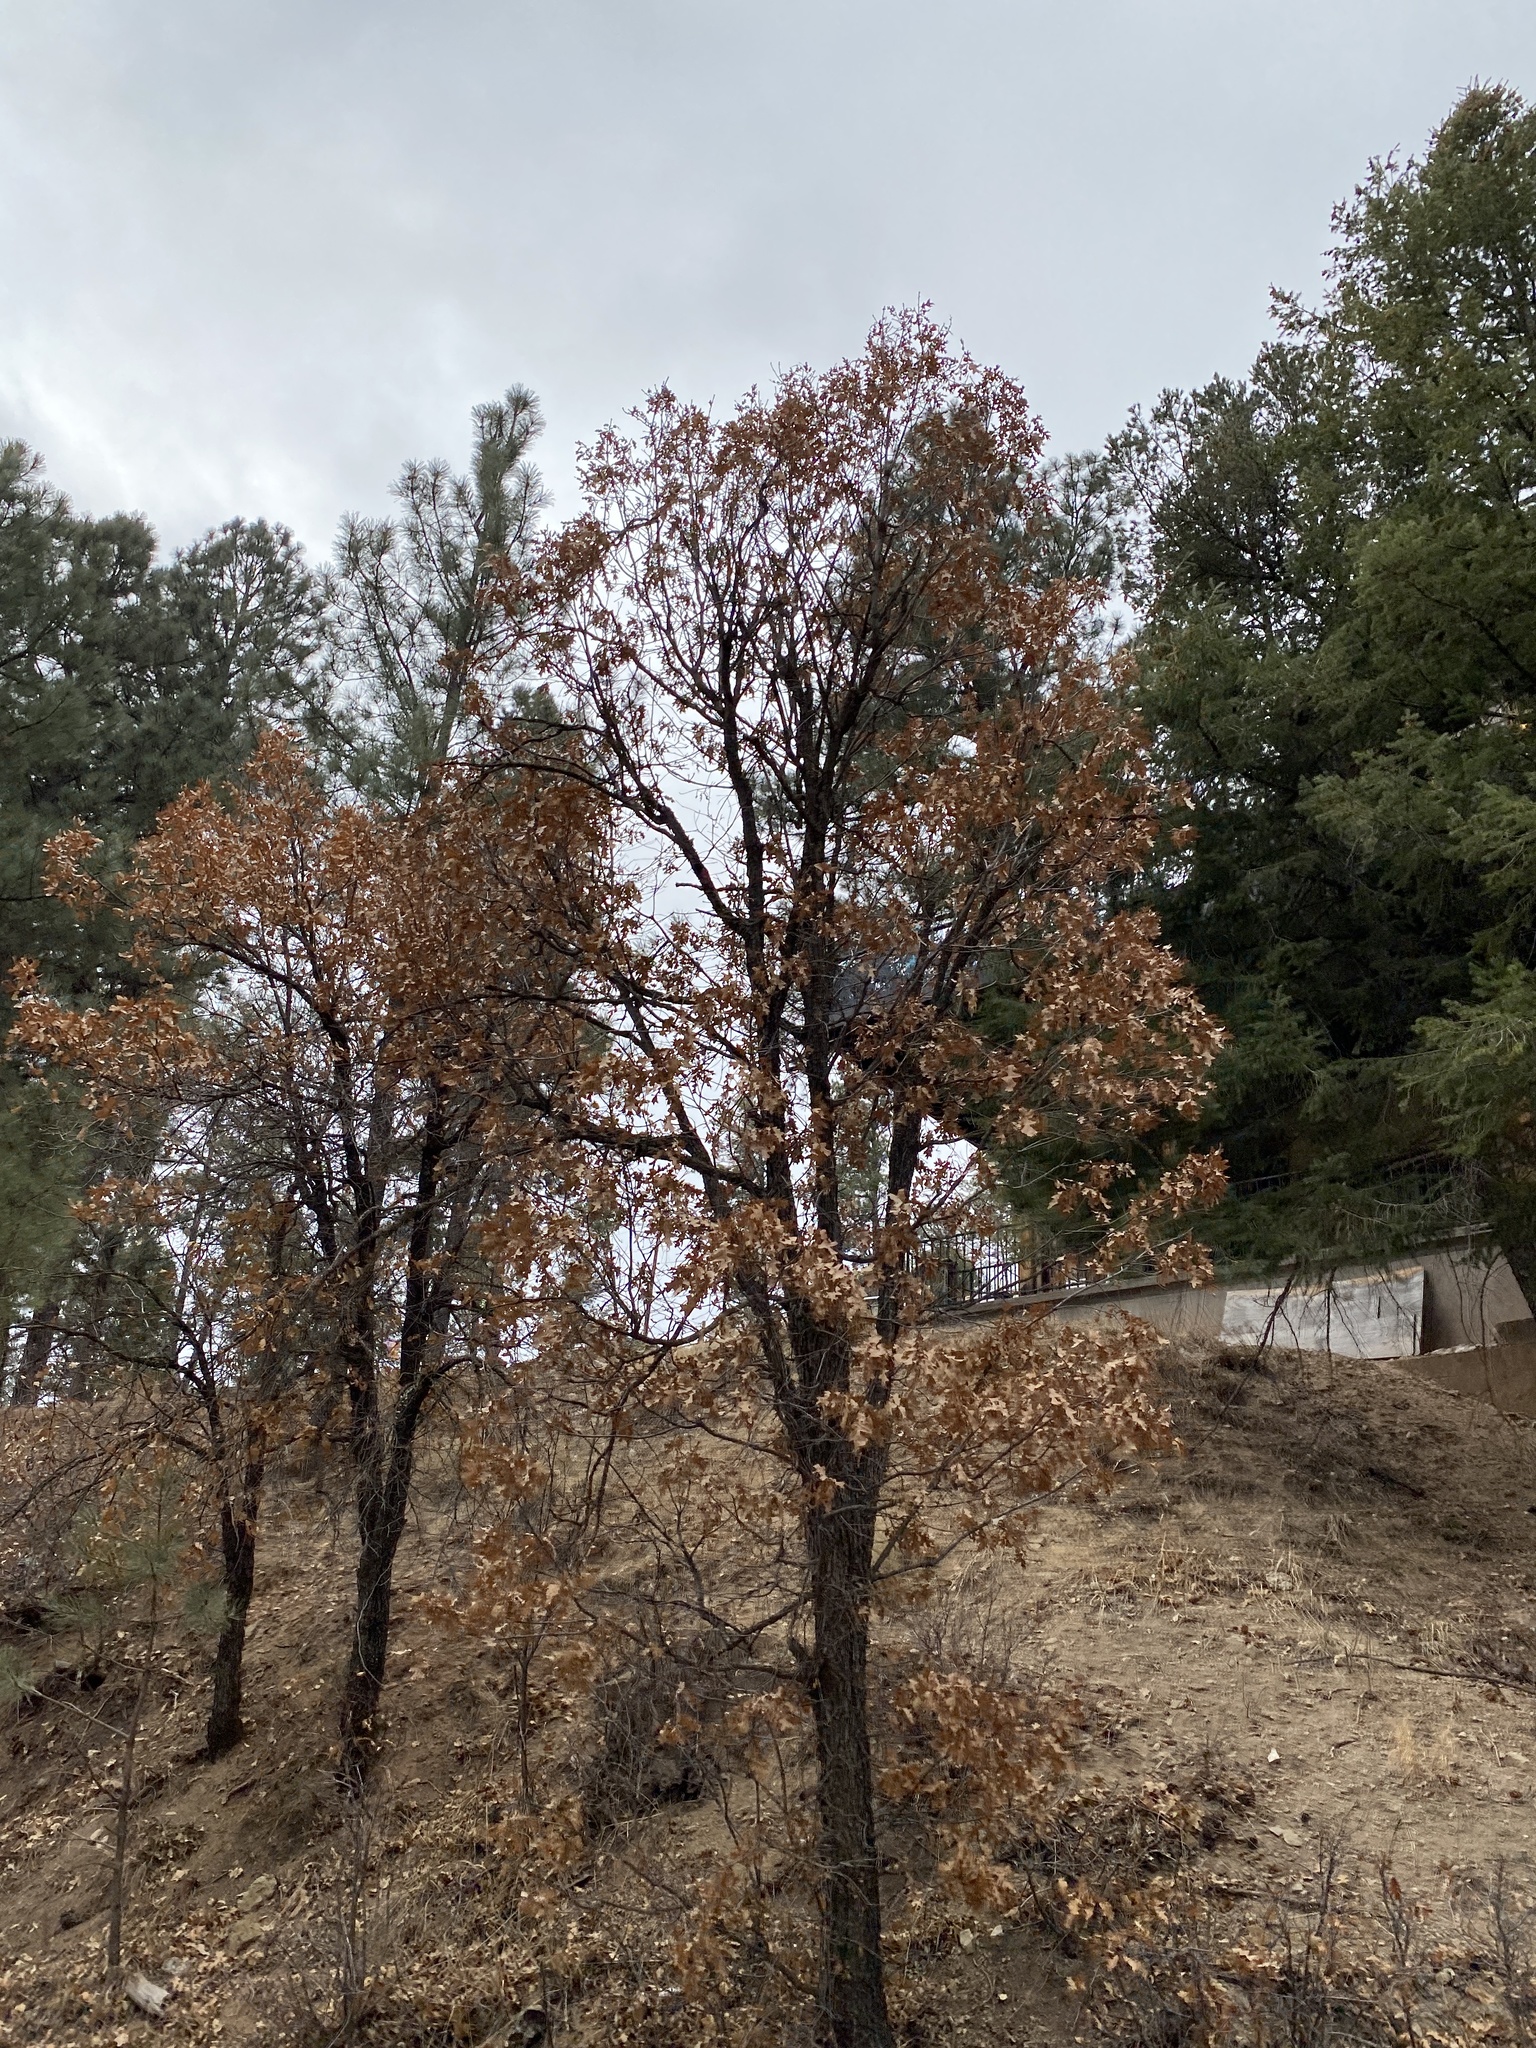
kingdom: Plantae
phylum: Tracheophyta
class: Magnoliopsida
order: Fagales
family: Fagaceae
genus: Quercus
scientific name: Quercus gambelii
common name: Gambel oak
